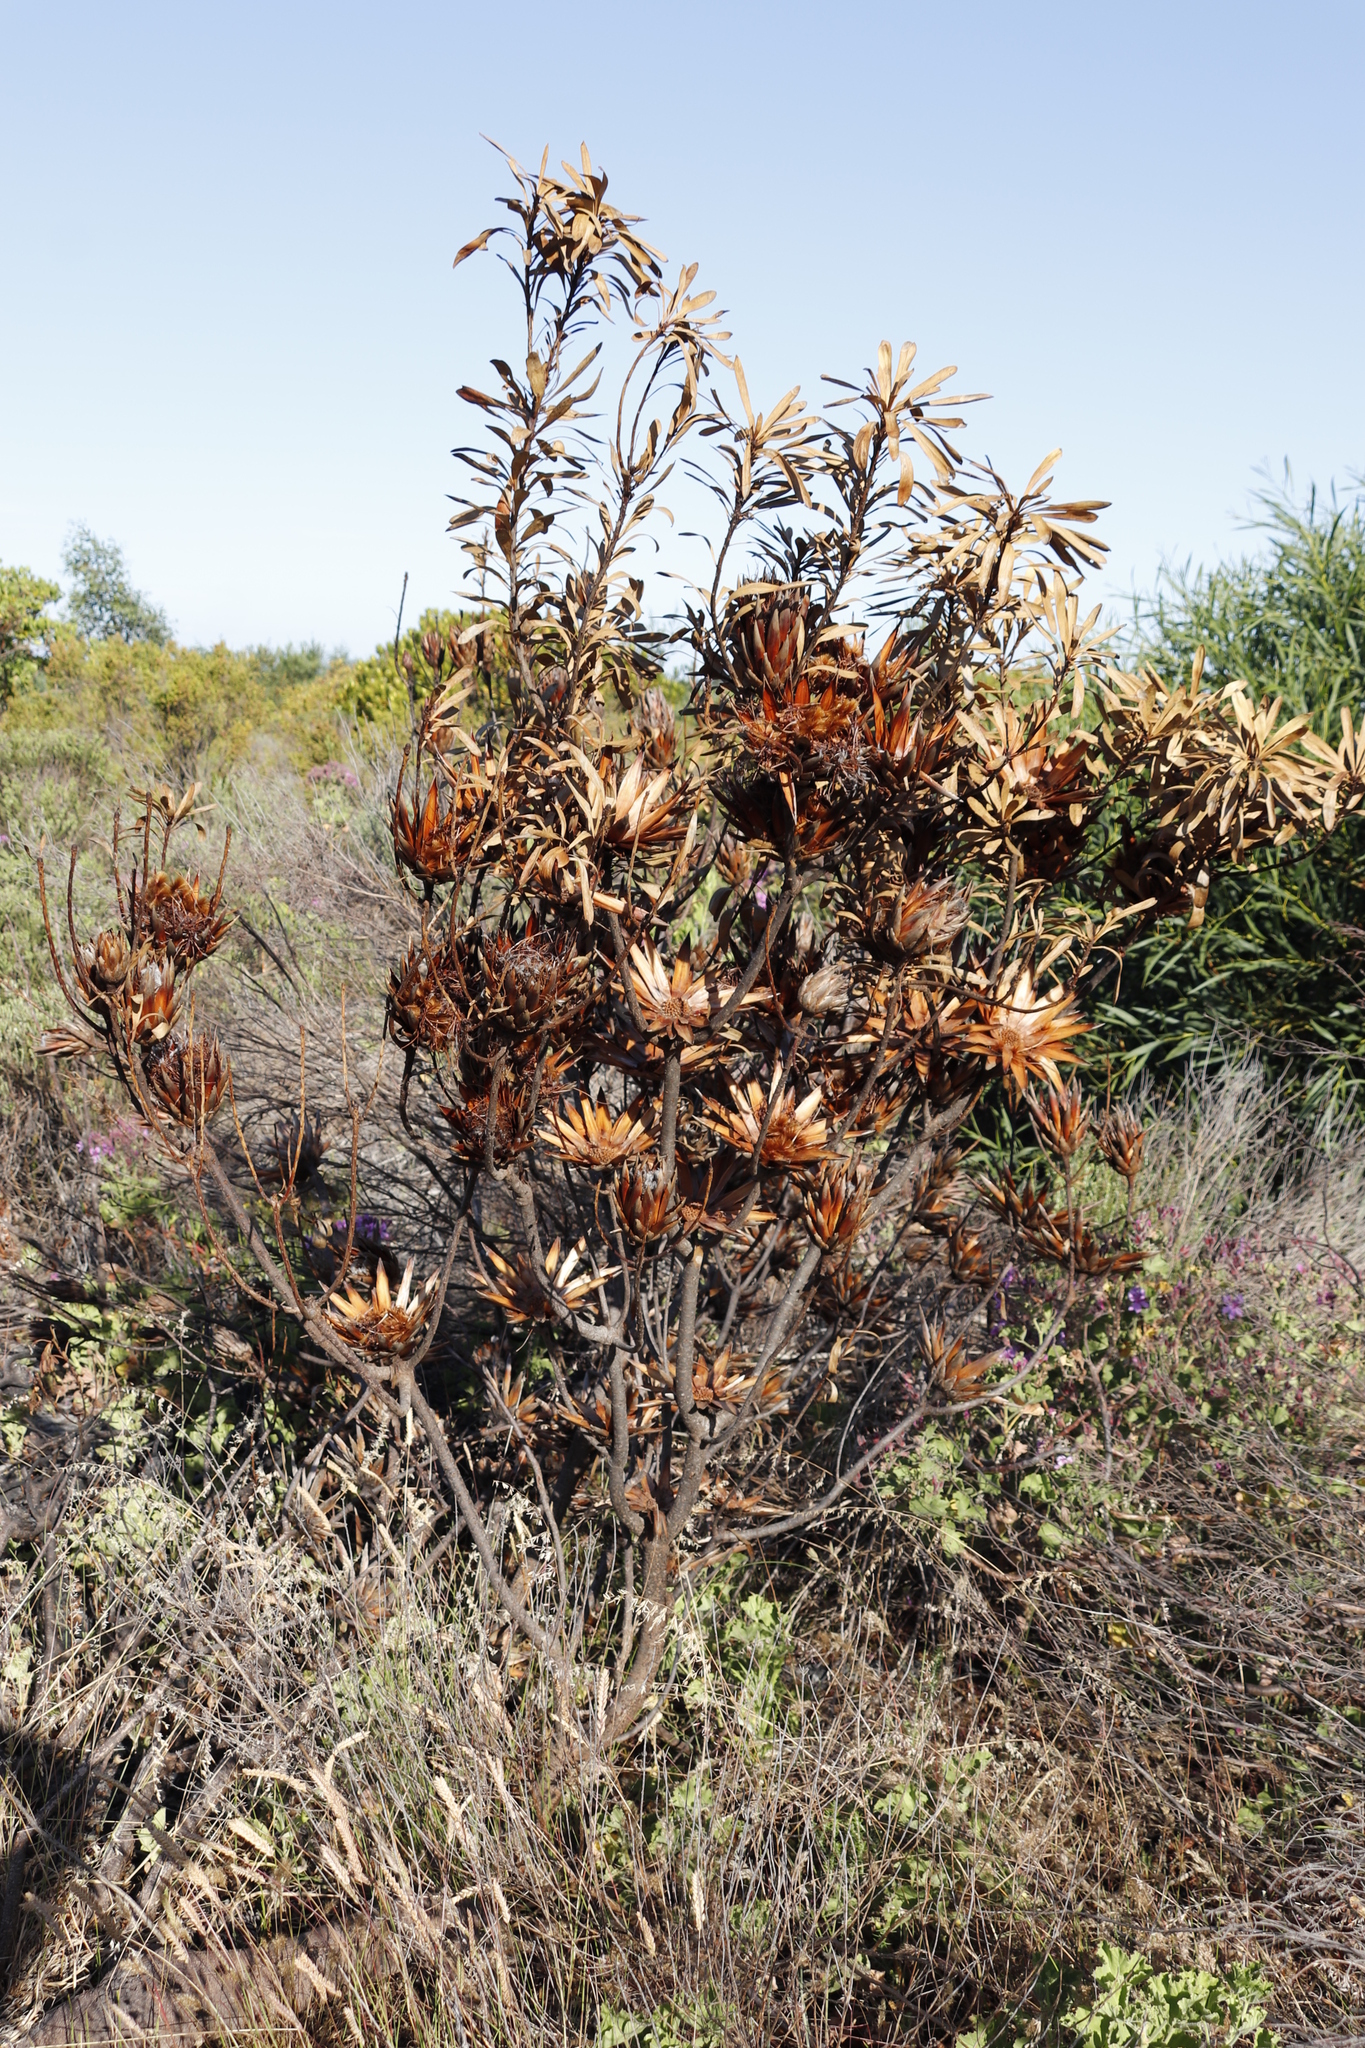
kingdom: Plantae
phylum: Tracheophyta
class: Magnoliopsida
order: Proteales
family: Proteaceae
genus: Protea
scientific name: Protea repens
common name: Sugarbush
